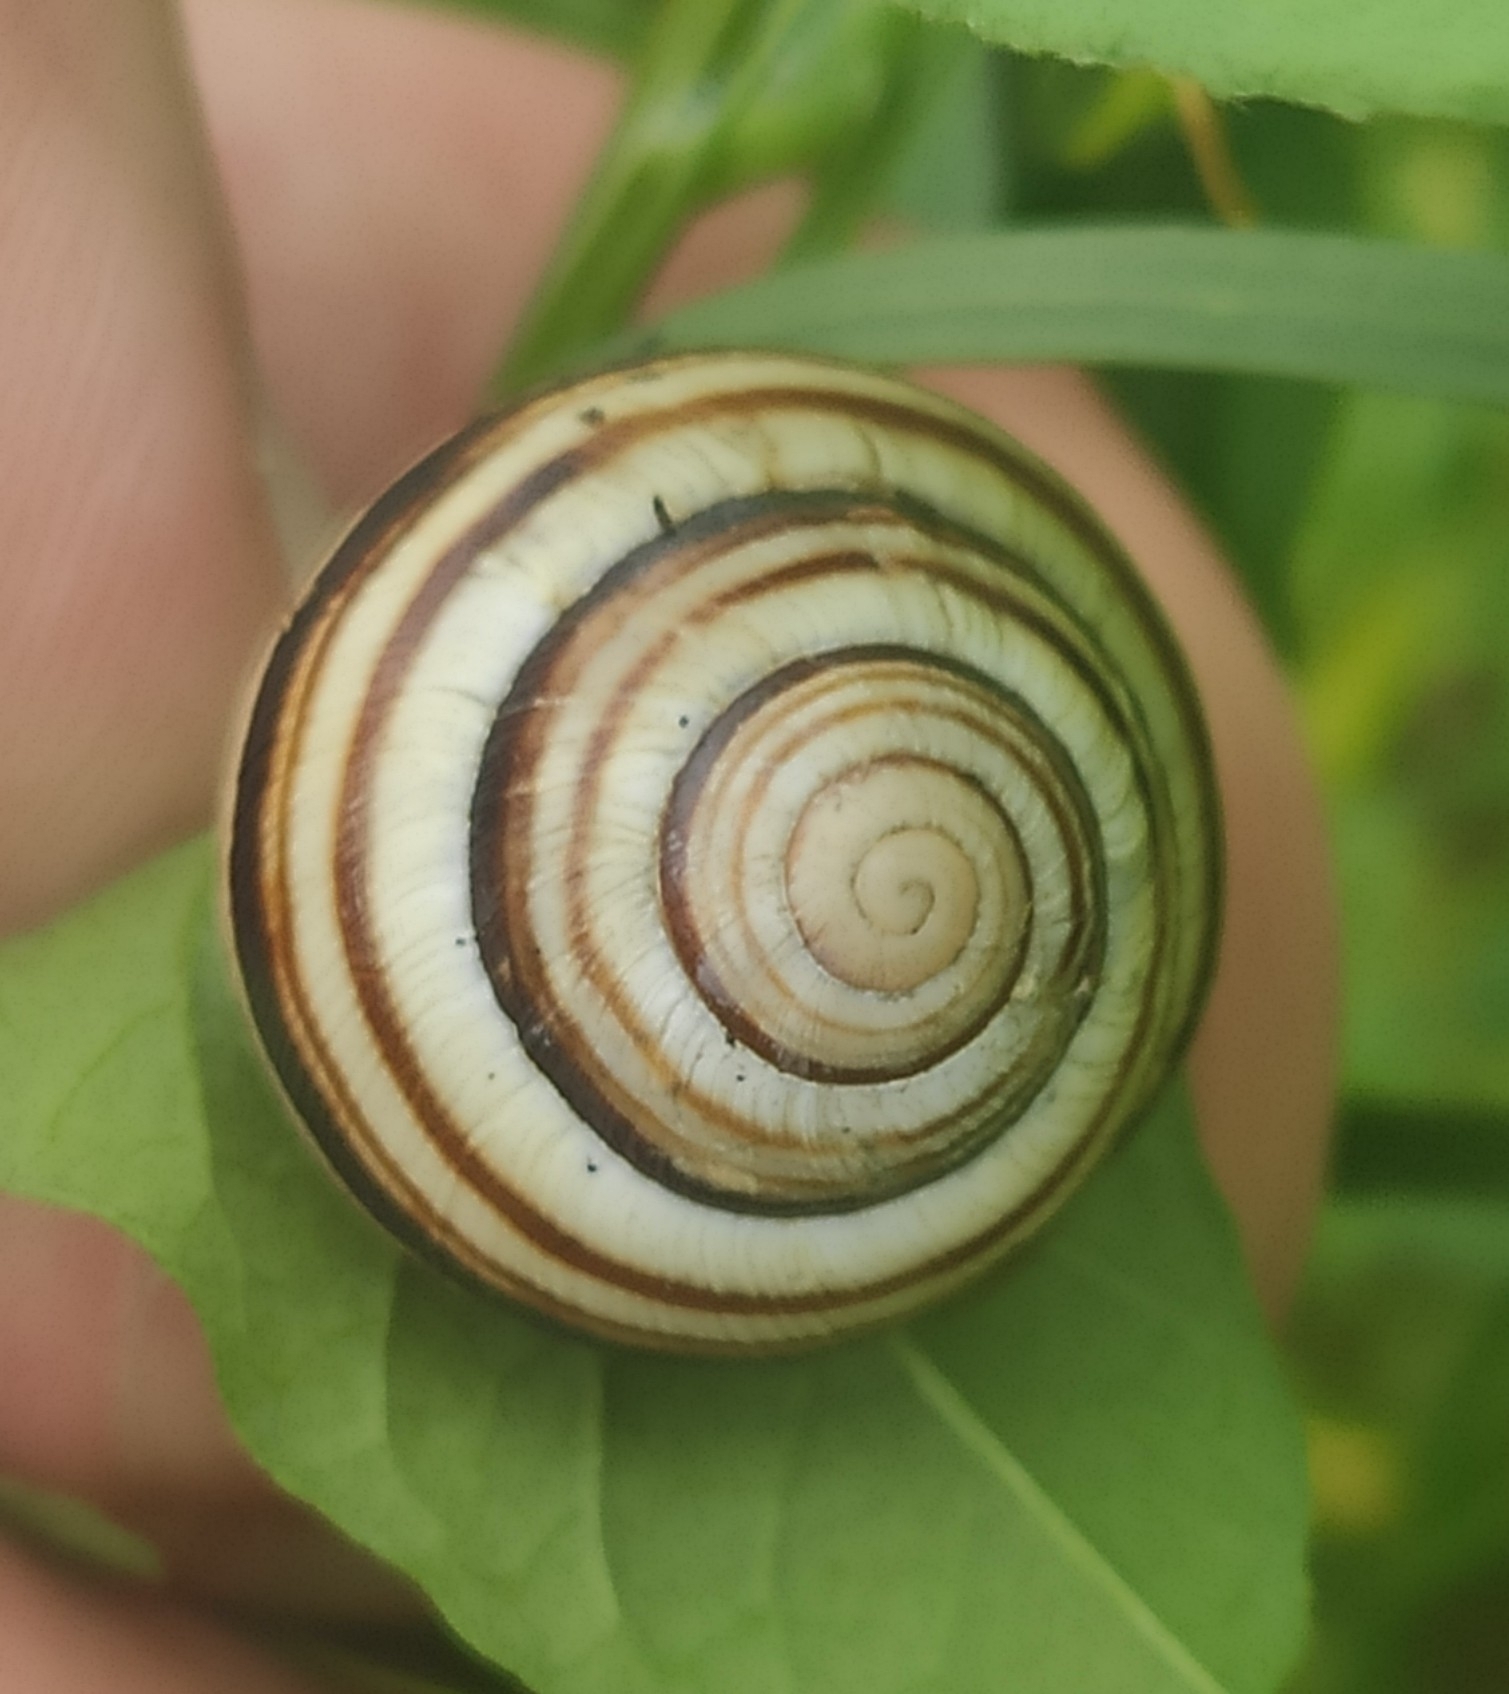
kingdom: Animalia
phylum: Mollusca
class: Gastropoda
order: Stylommatophora
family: Helicidae
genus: Caucasotachea
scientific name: Caucasotachea vindobonensis
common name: European helicid land snail
